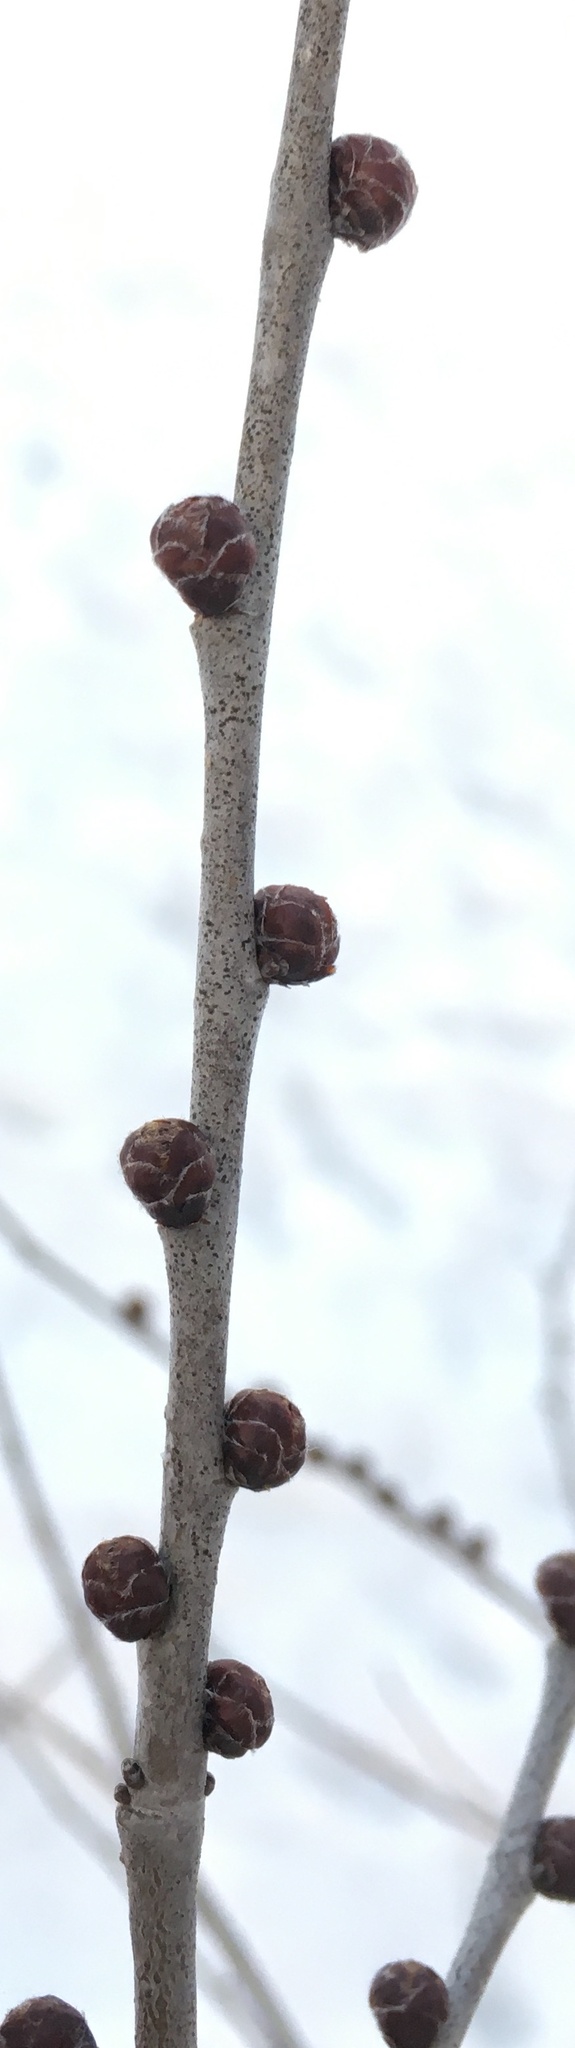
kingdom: Plantae
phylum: Tracheophyta
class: Magnoliopsida
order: Rosales
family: Ulmaceae
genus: Ulmus
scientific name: Ulmus pumila
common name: Siberian elm
